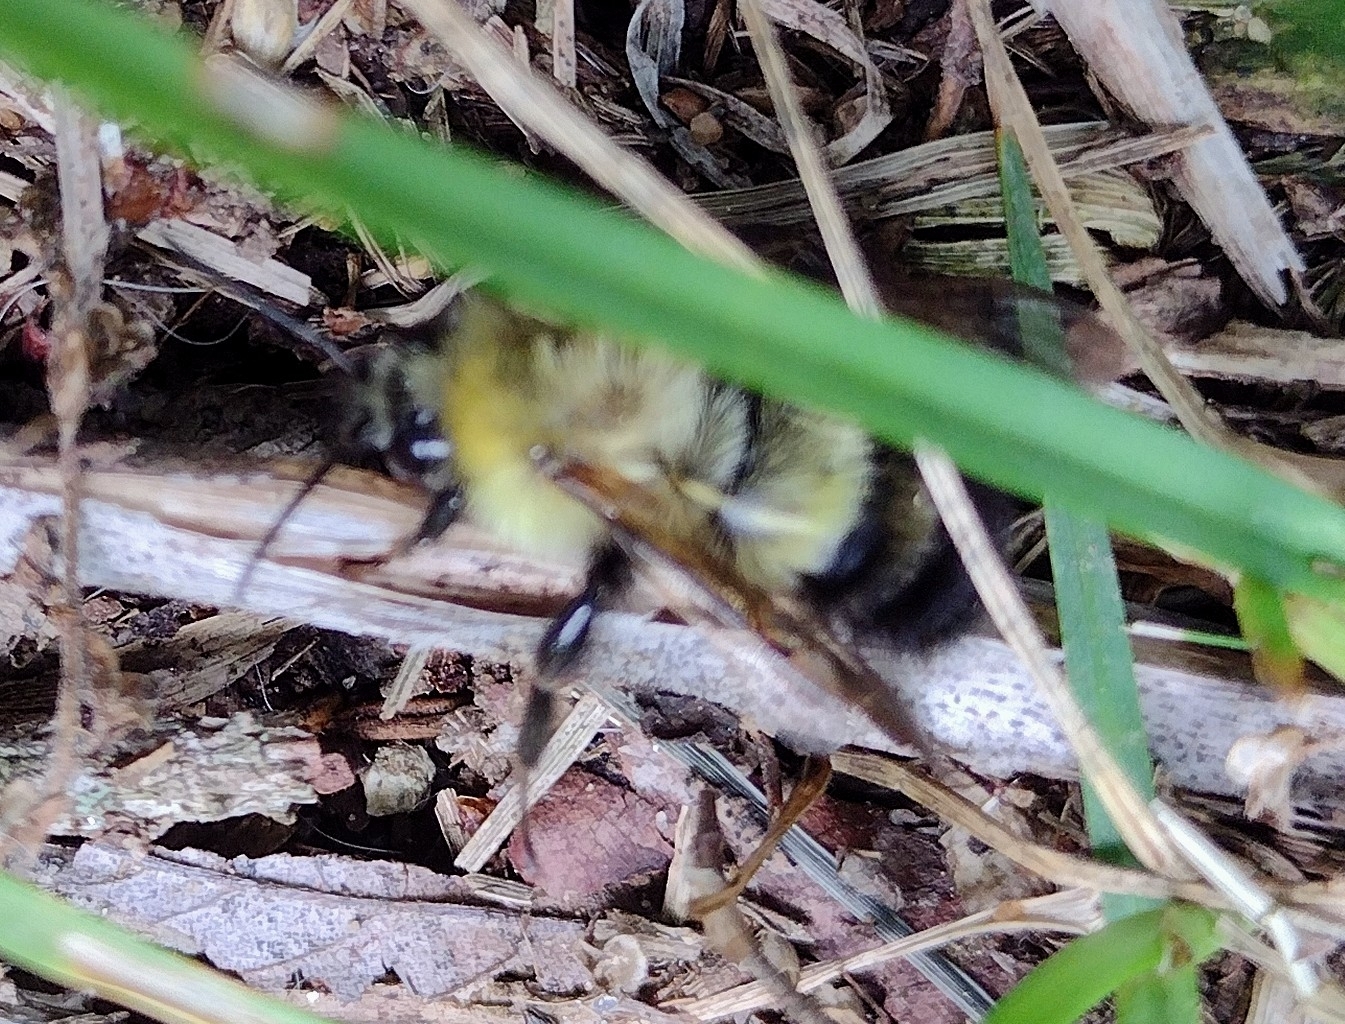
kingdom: Animalia
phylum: Arthropoda
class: Insecta
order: Hymenoptera
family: Apidae
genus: Pyrobombus
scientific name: Pyrobombus
